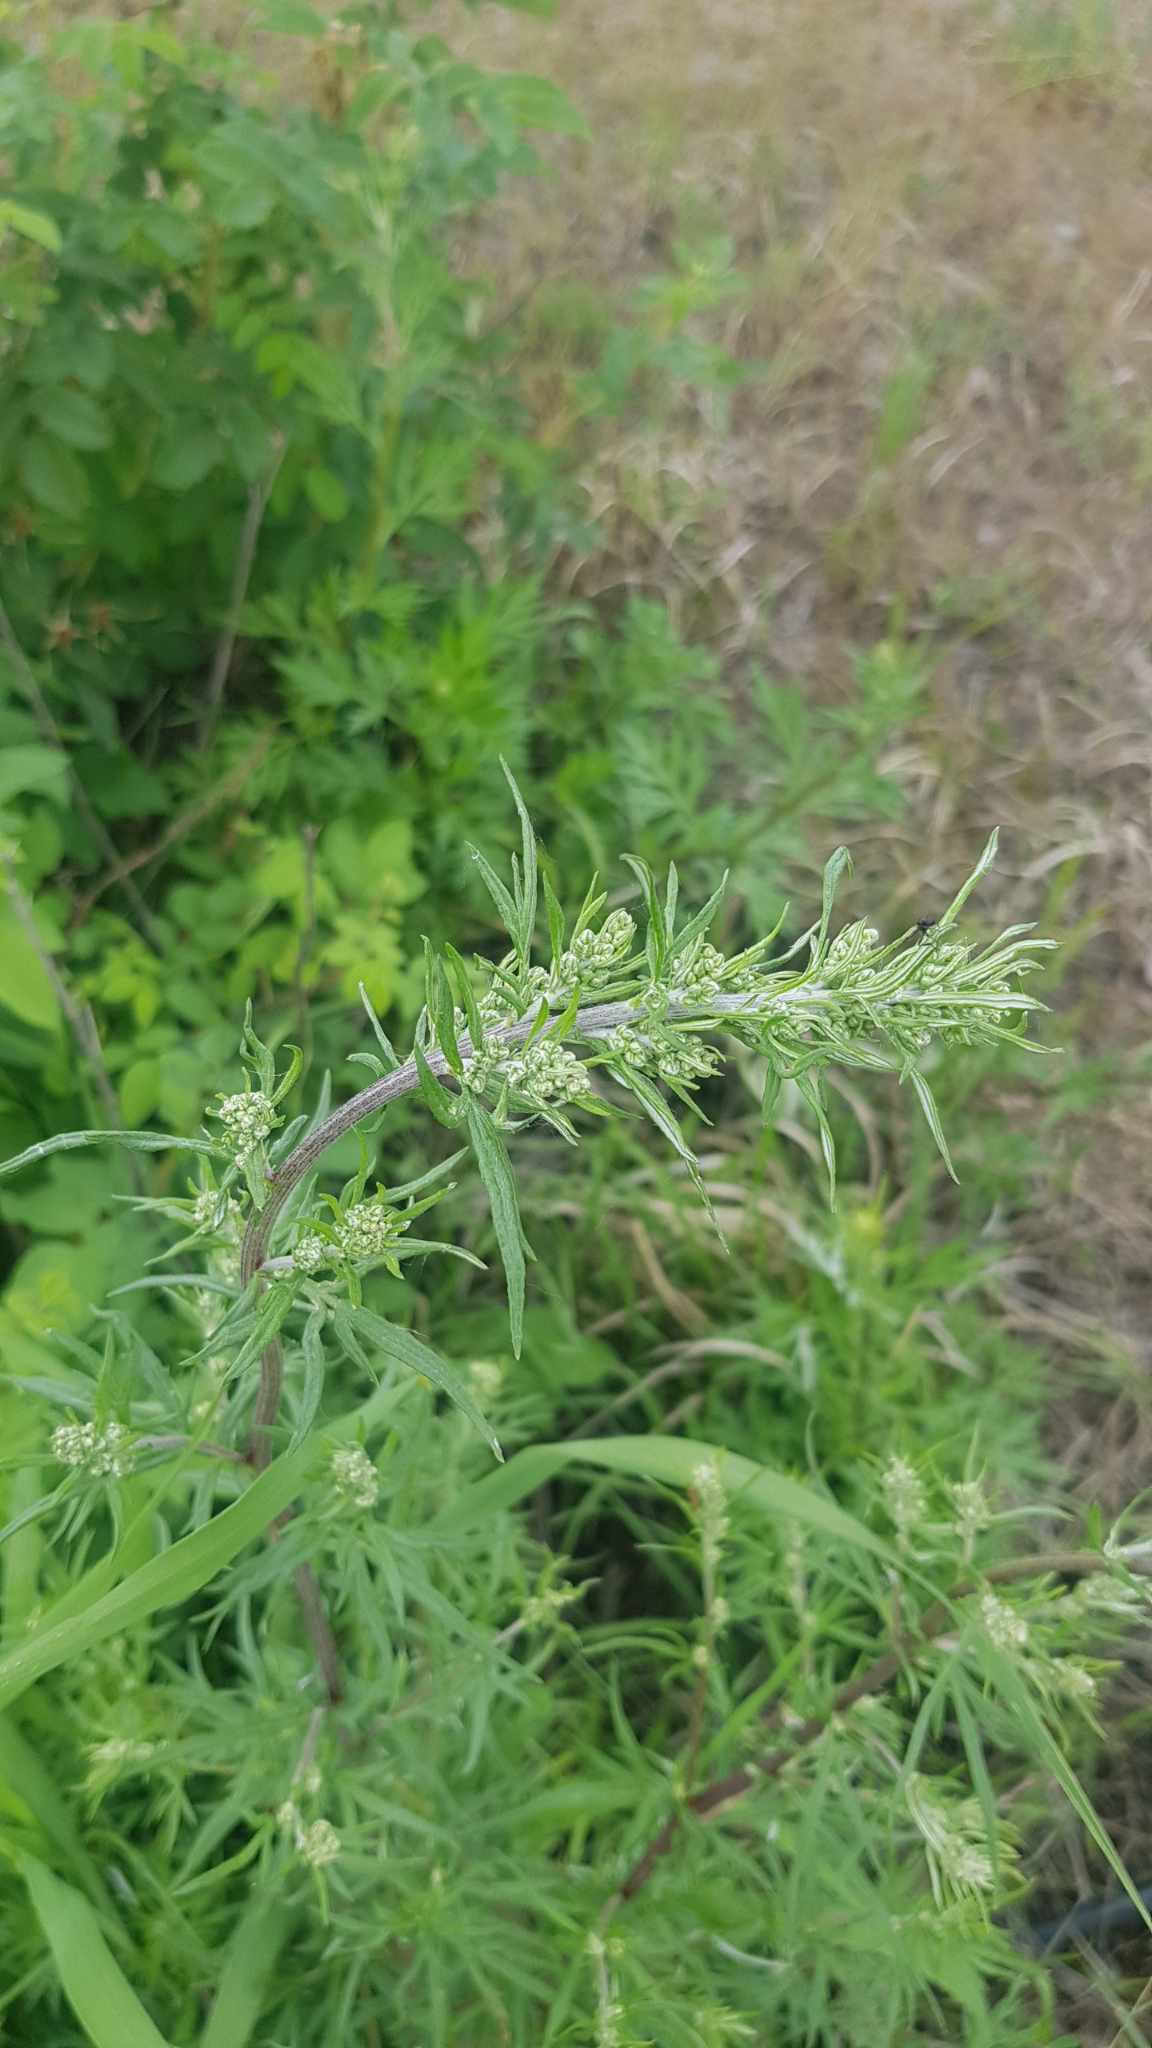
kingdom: Plantae
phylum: Tracheophyta
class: Magnoliopsida
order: Asterales
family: Asteraceae
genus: Artemisia
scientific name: Artemisia vulgaris
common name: Mugwort
